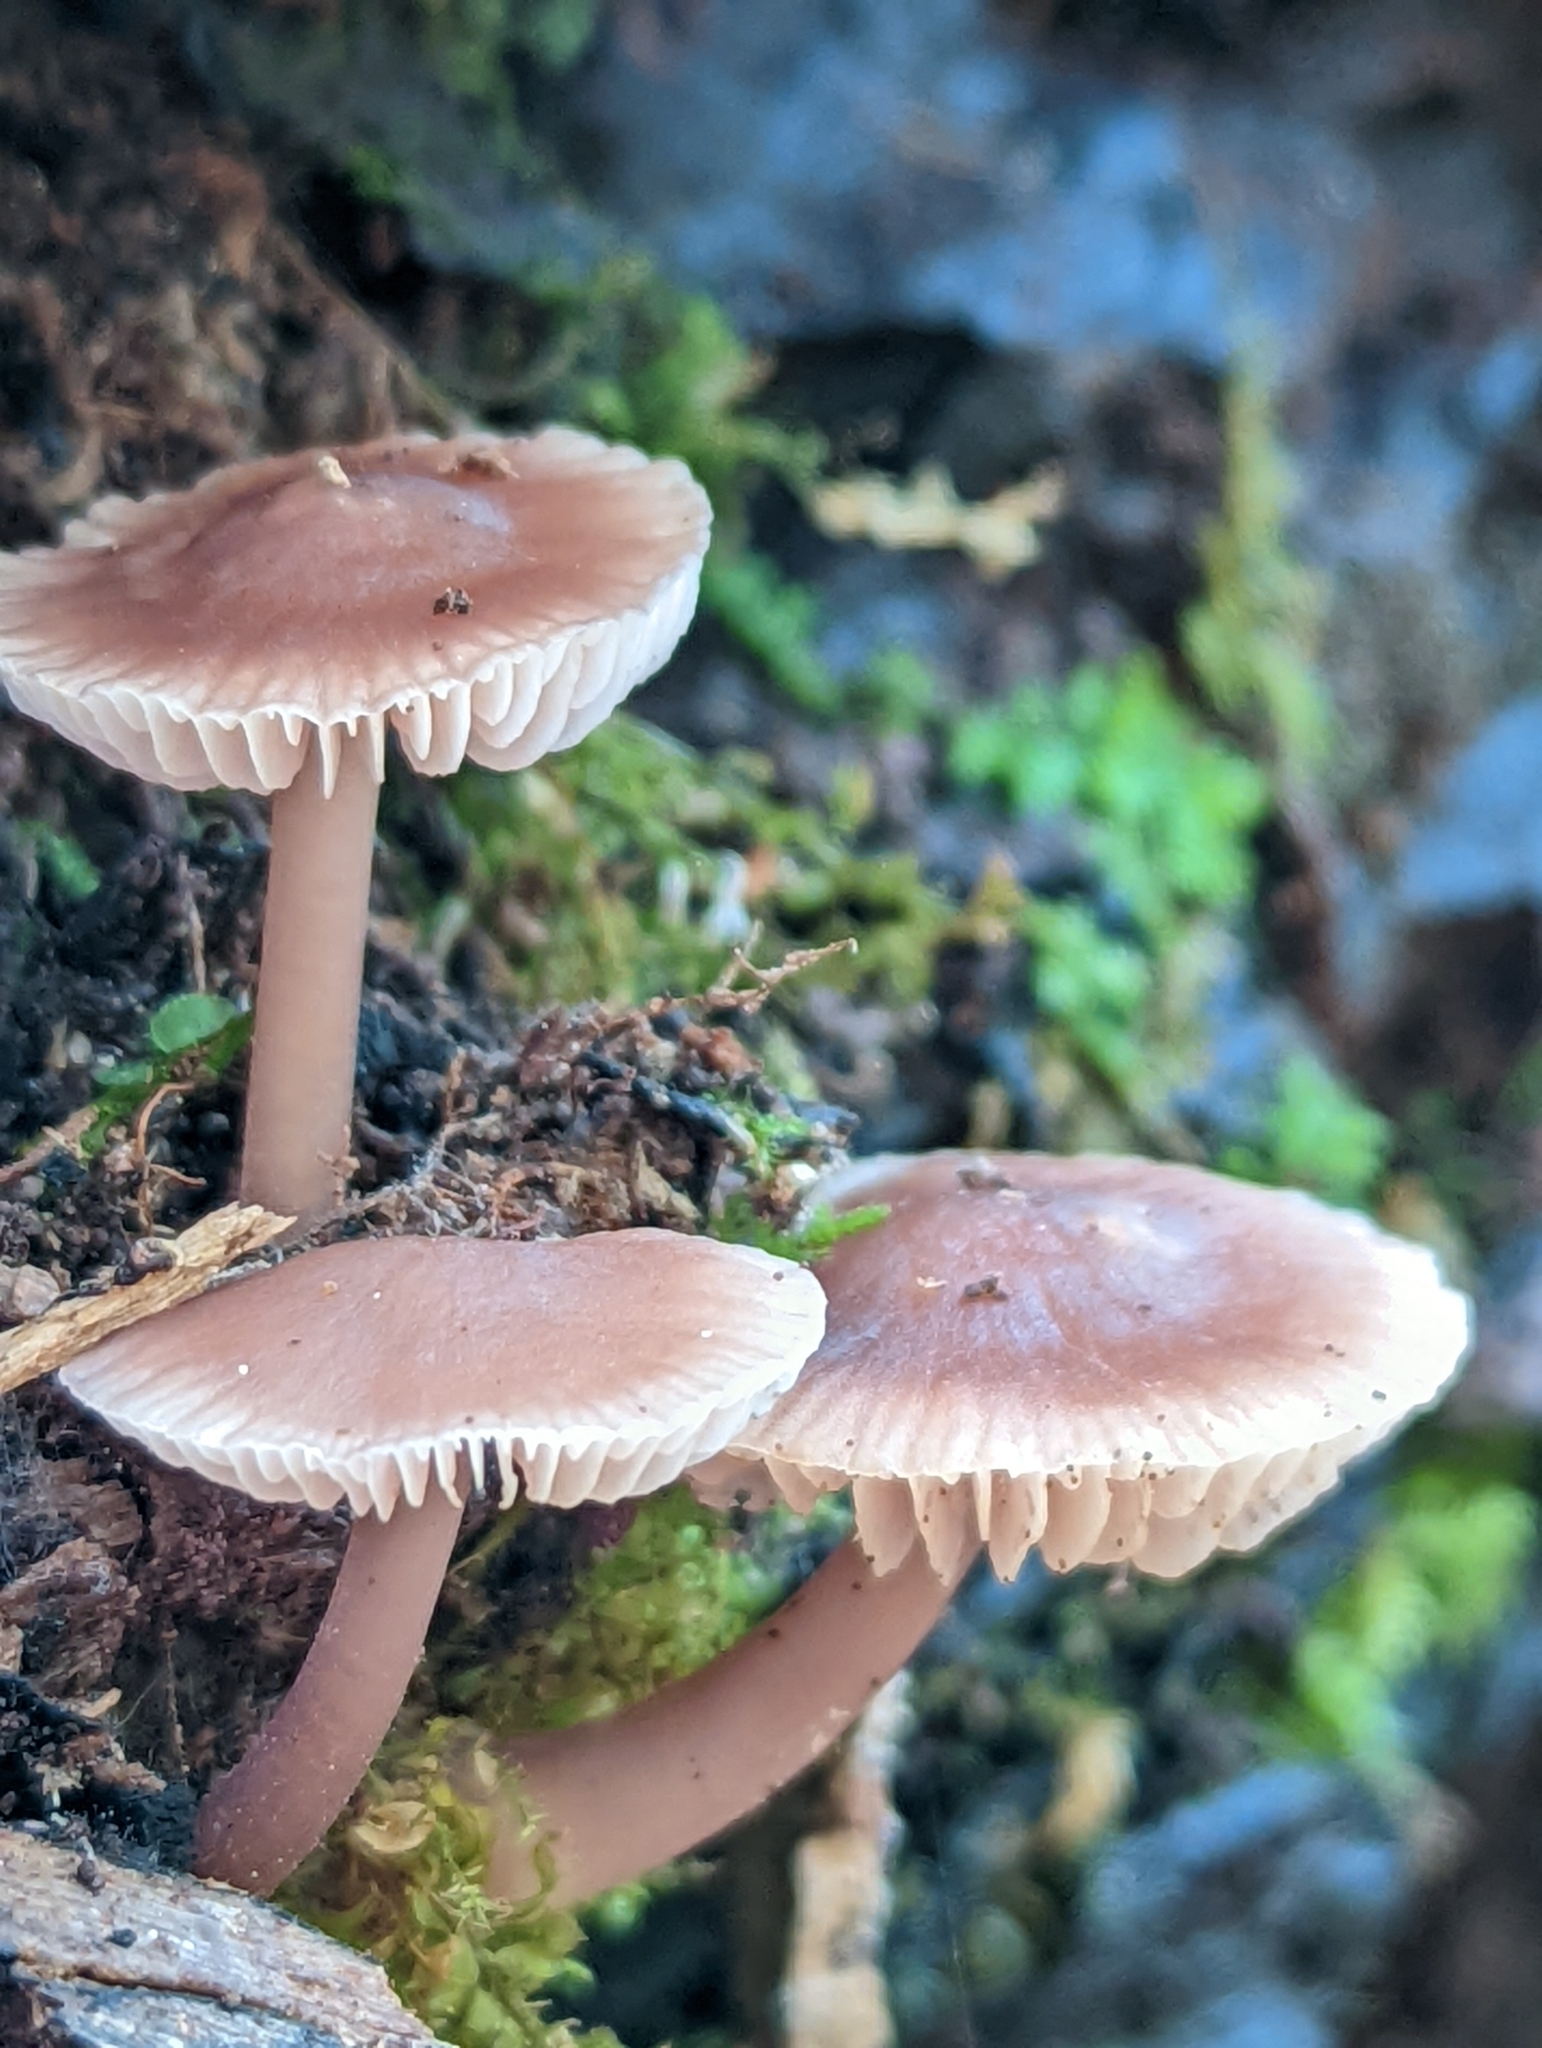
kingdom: Fungi
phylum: Basidiomycota
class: Agaricomycetes
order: Agaricales
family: Mycenaceae
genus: Mycena
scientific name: Mycena pura
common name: Lilac bonnet
